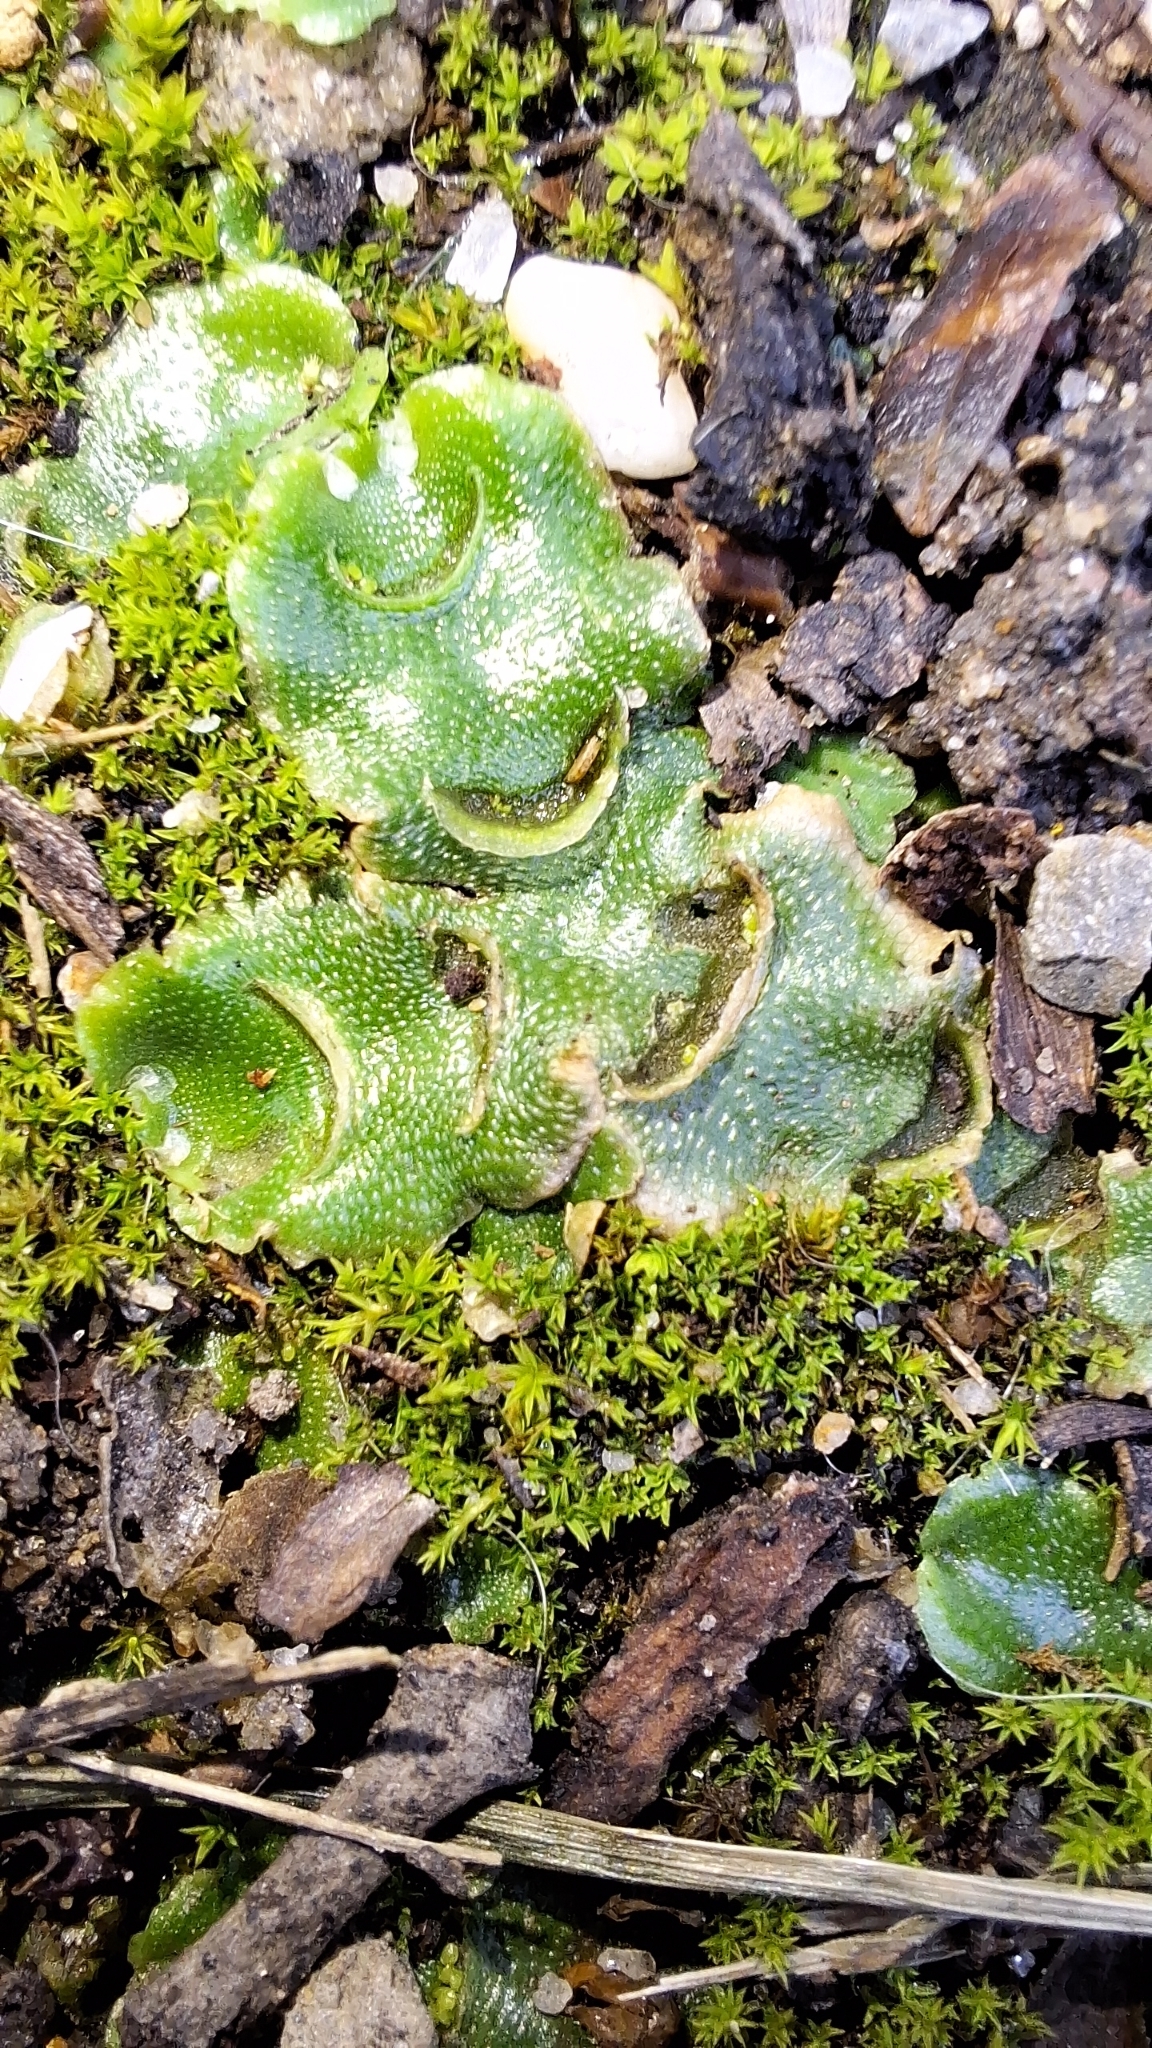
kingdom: Plantae
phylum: Marchantiophyta
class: Marchantiopsida
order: Lunulariales
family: Lunulariaceae
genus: Lunularia
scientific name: Lunularia cruciata
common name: Crescent-cup liverwort
